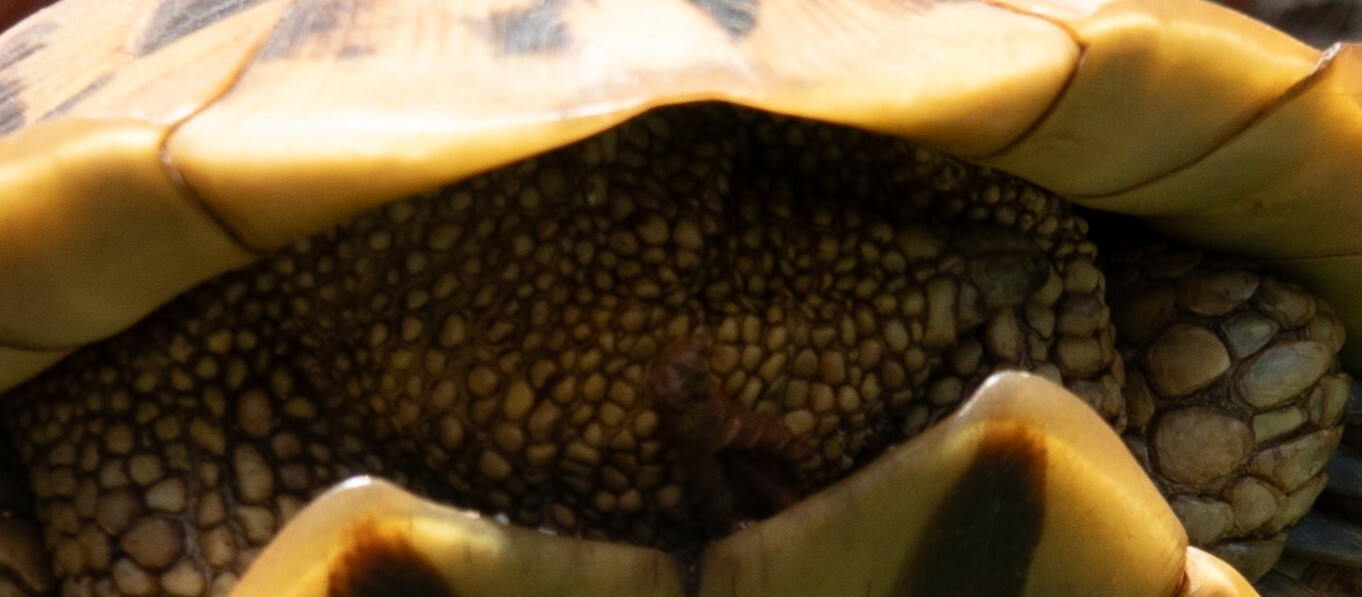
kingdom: Animalia
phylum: Chordata
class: Testudines
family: Testudinidae
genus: Testudo
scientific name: Testudo hermanni
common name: Hermann's tortoise
